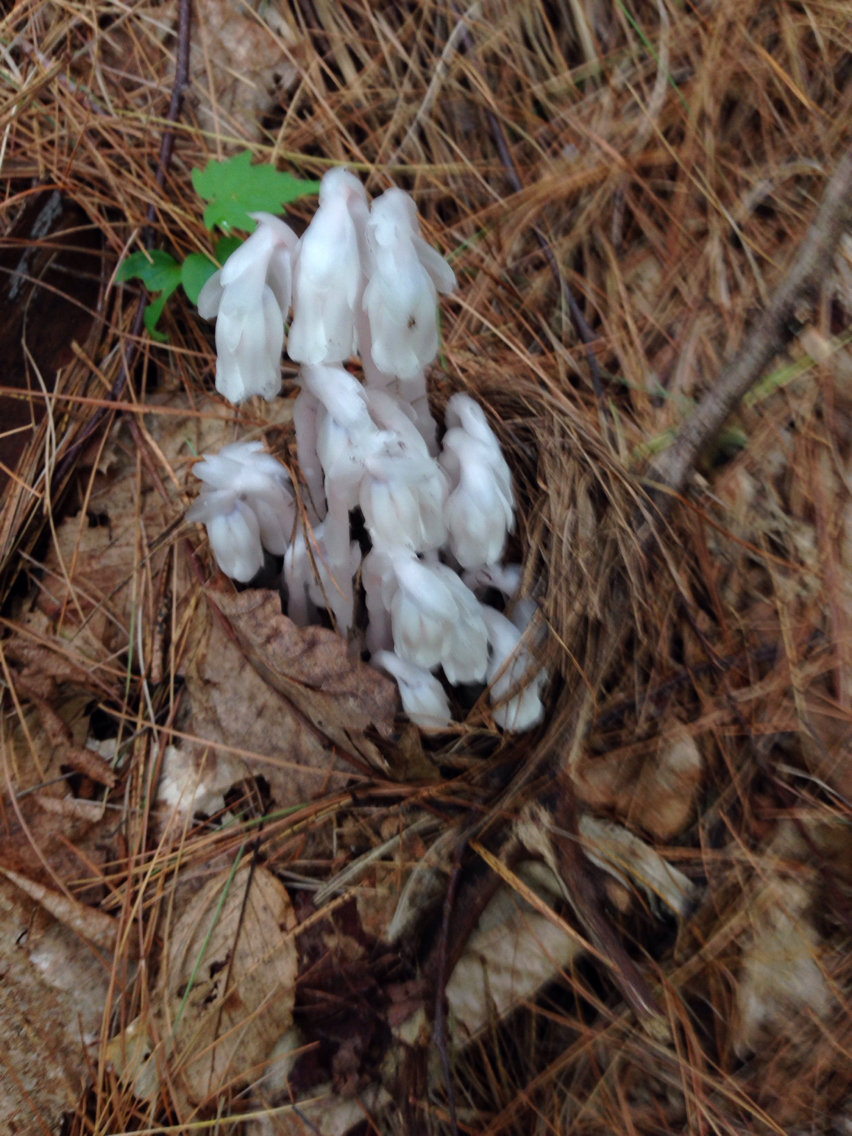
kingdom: Plantae
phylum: Tracheophyta
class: Magnoliopsida
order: Ericales
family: Ericaceae
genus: Monotropa
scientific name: Monotropa uniflora
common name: Convulsion root
